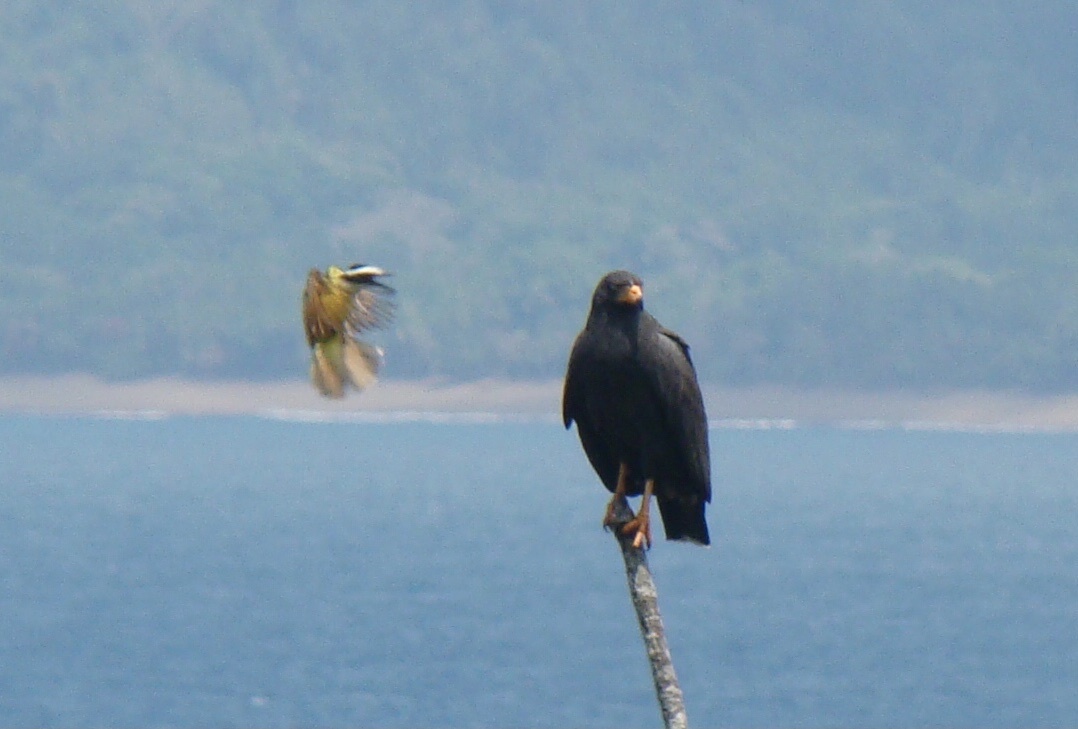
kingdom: Animalia
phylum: Chordata
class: Aves
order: Accipitriformes
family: Accipitridae
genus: Buteogallus
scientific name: Buteogallus anthracinus
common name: Common black hawk
